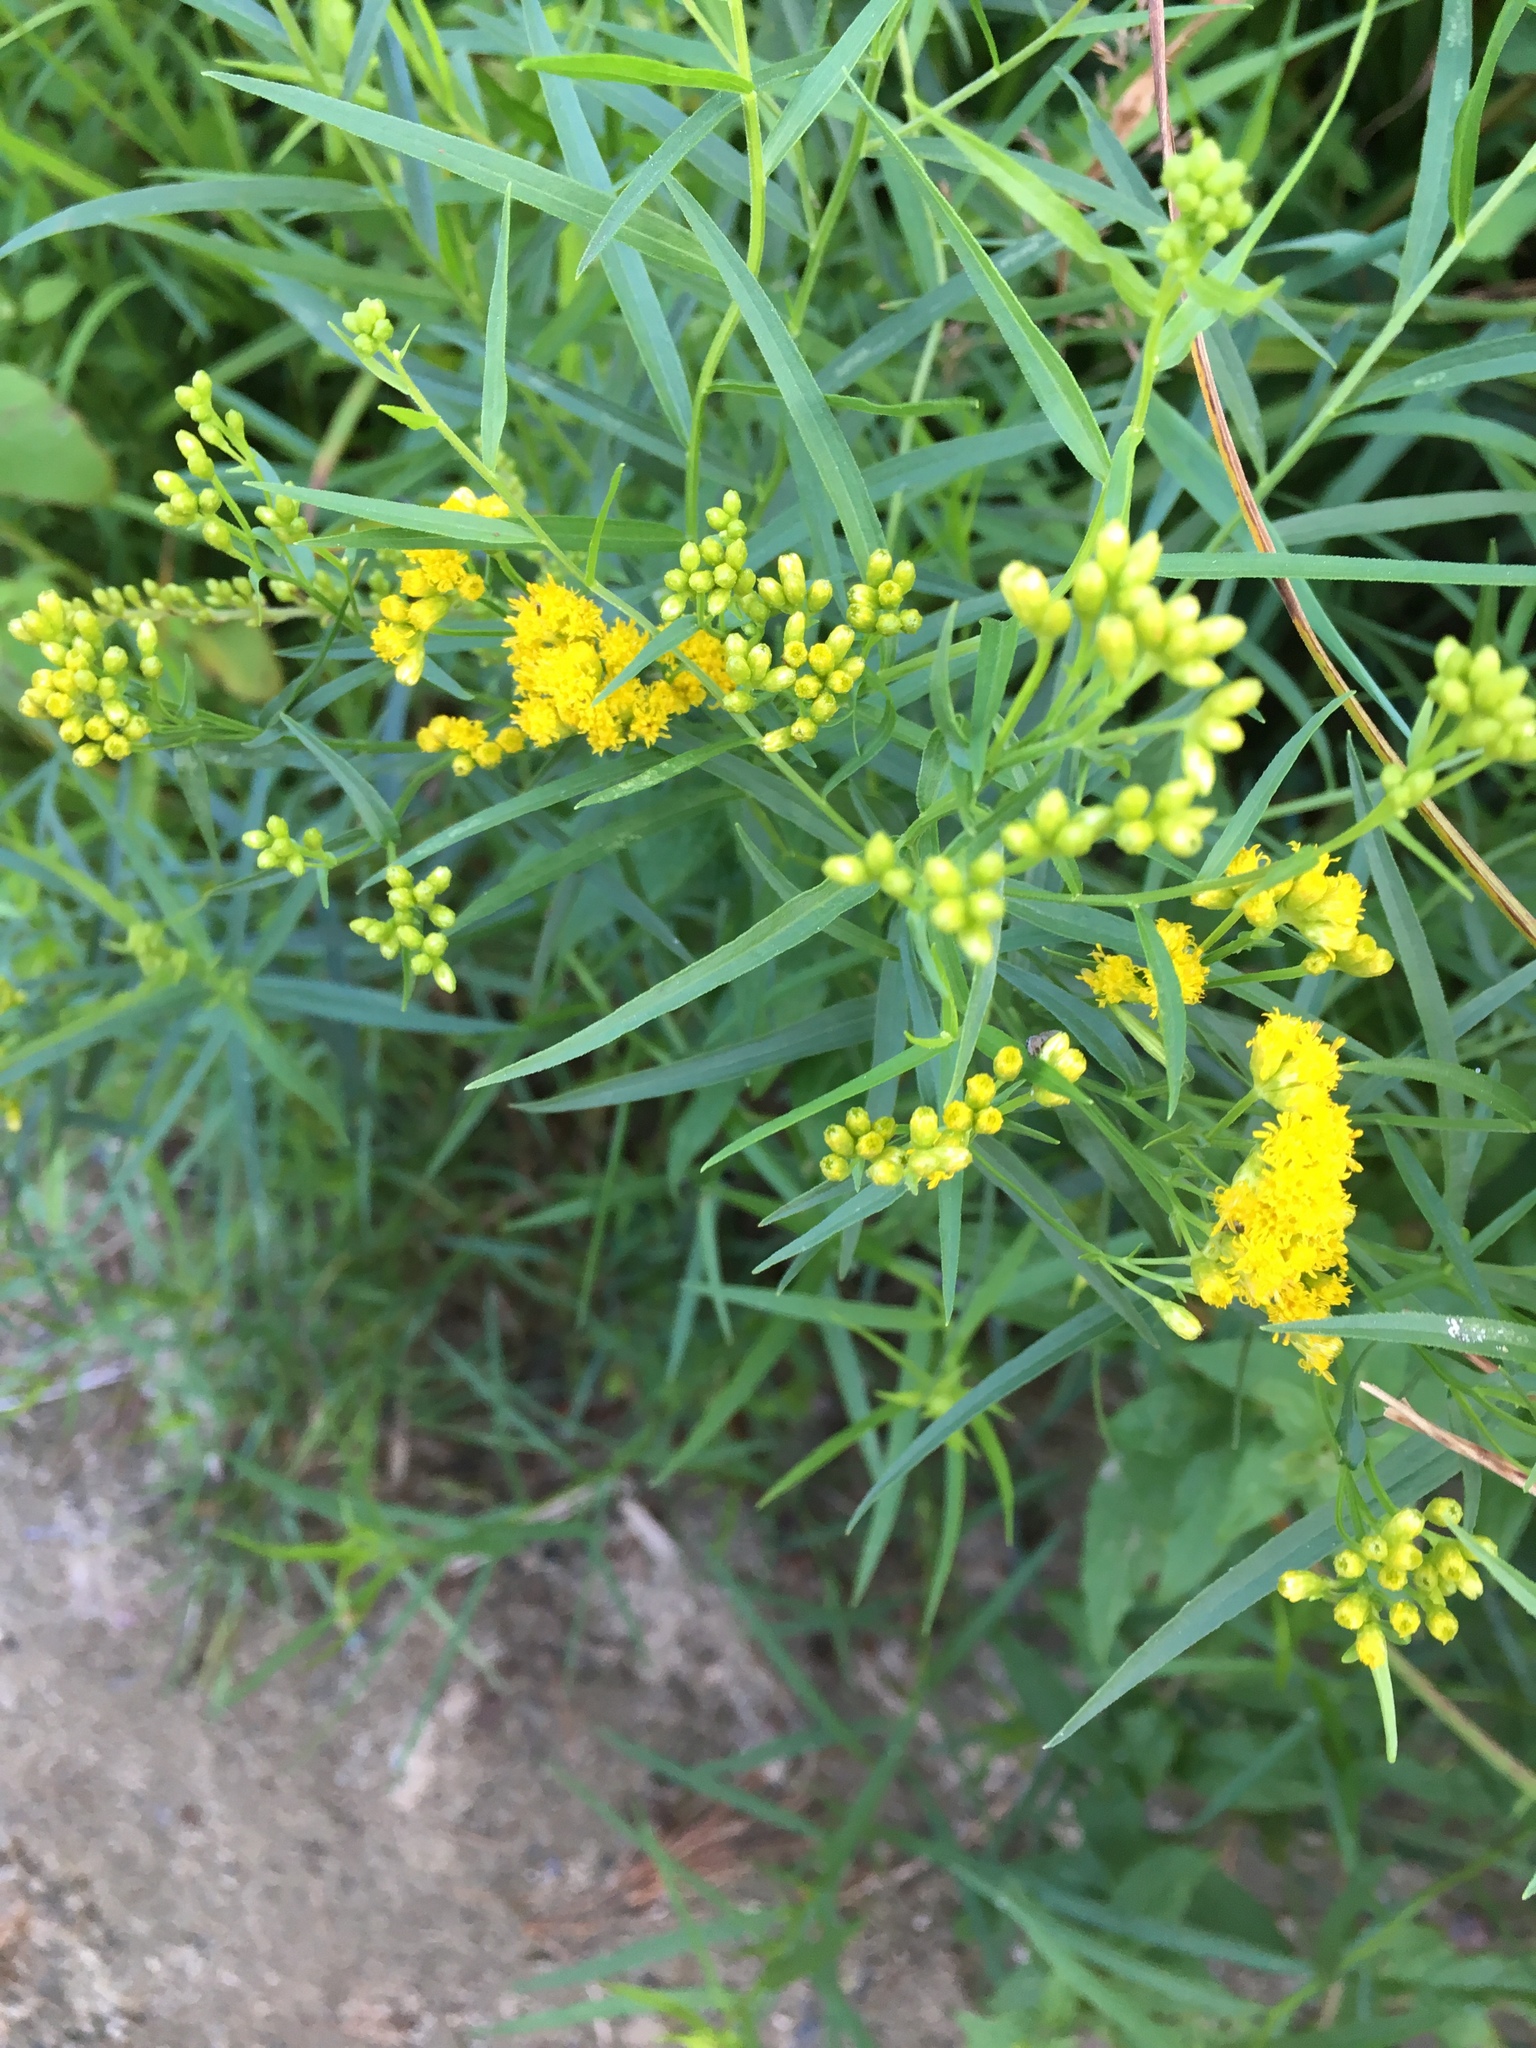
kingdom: Plantae
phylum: Tracheophyta
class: Magnoliopsida
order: Asterales
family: Asteraceae
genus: Euthamia
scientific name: Euthamia graminifolia
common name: Common goldentop
